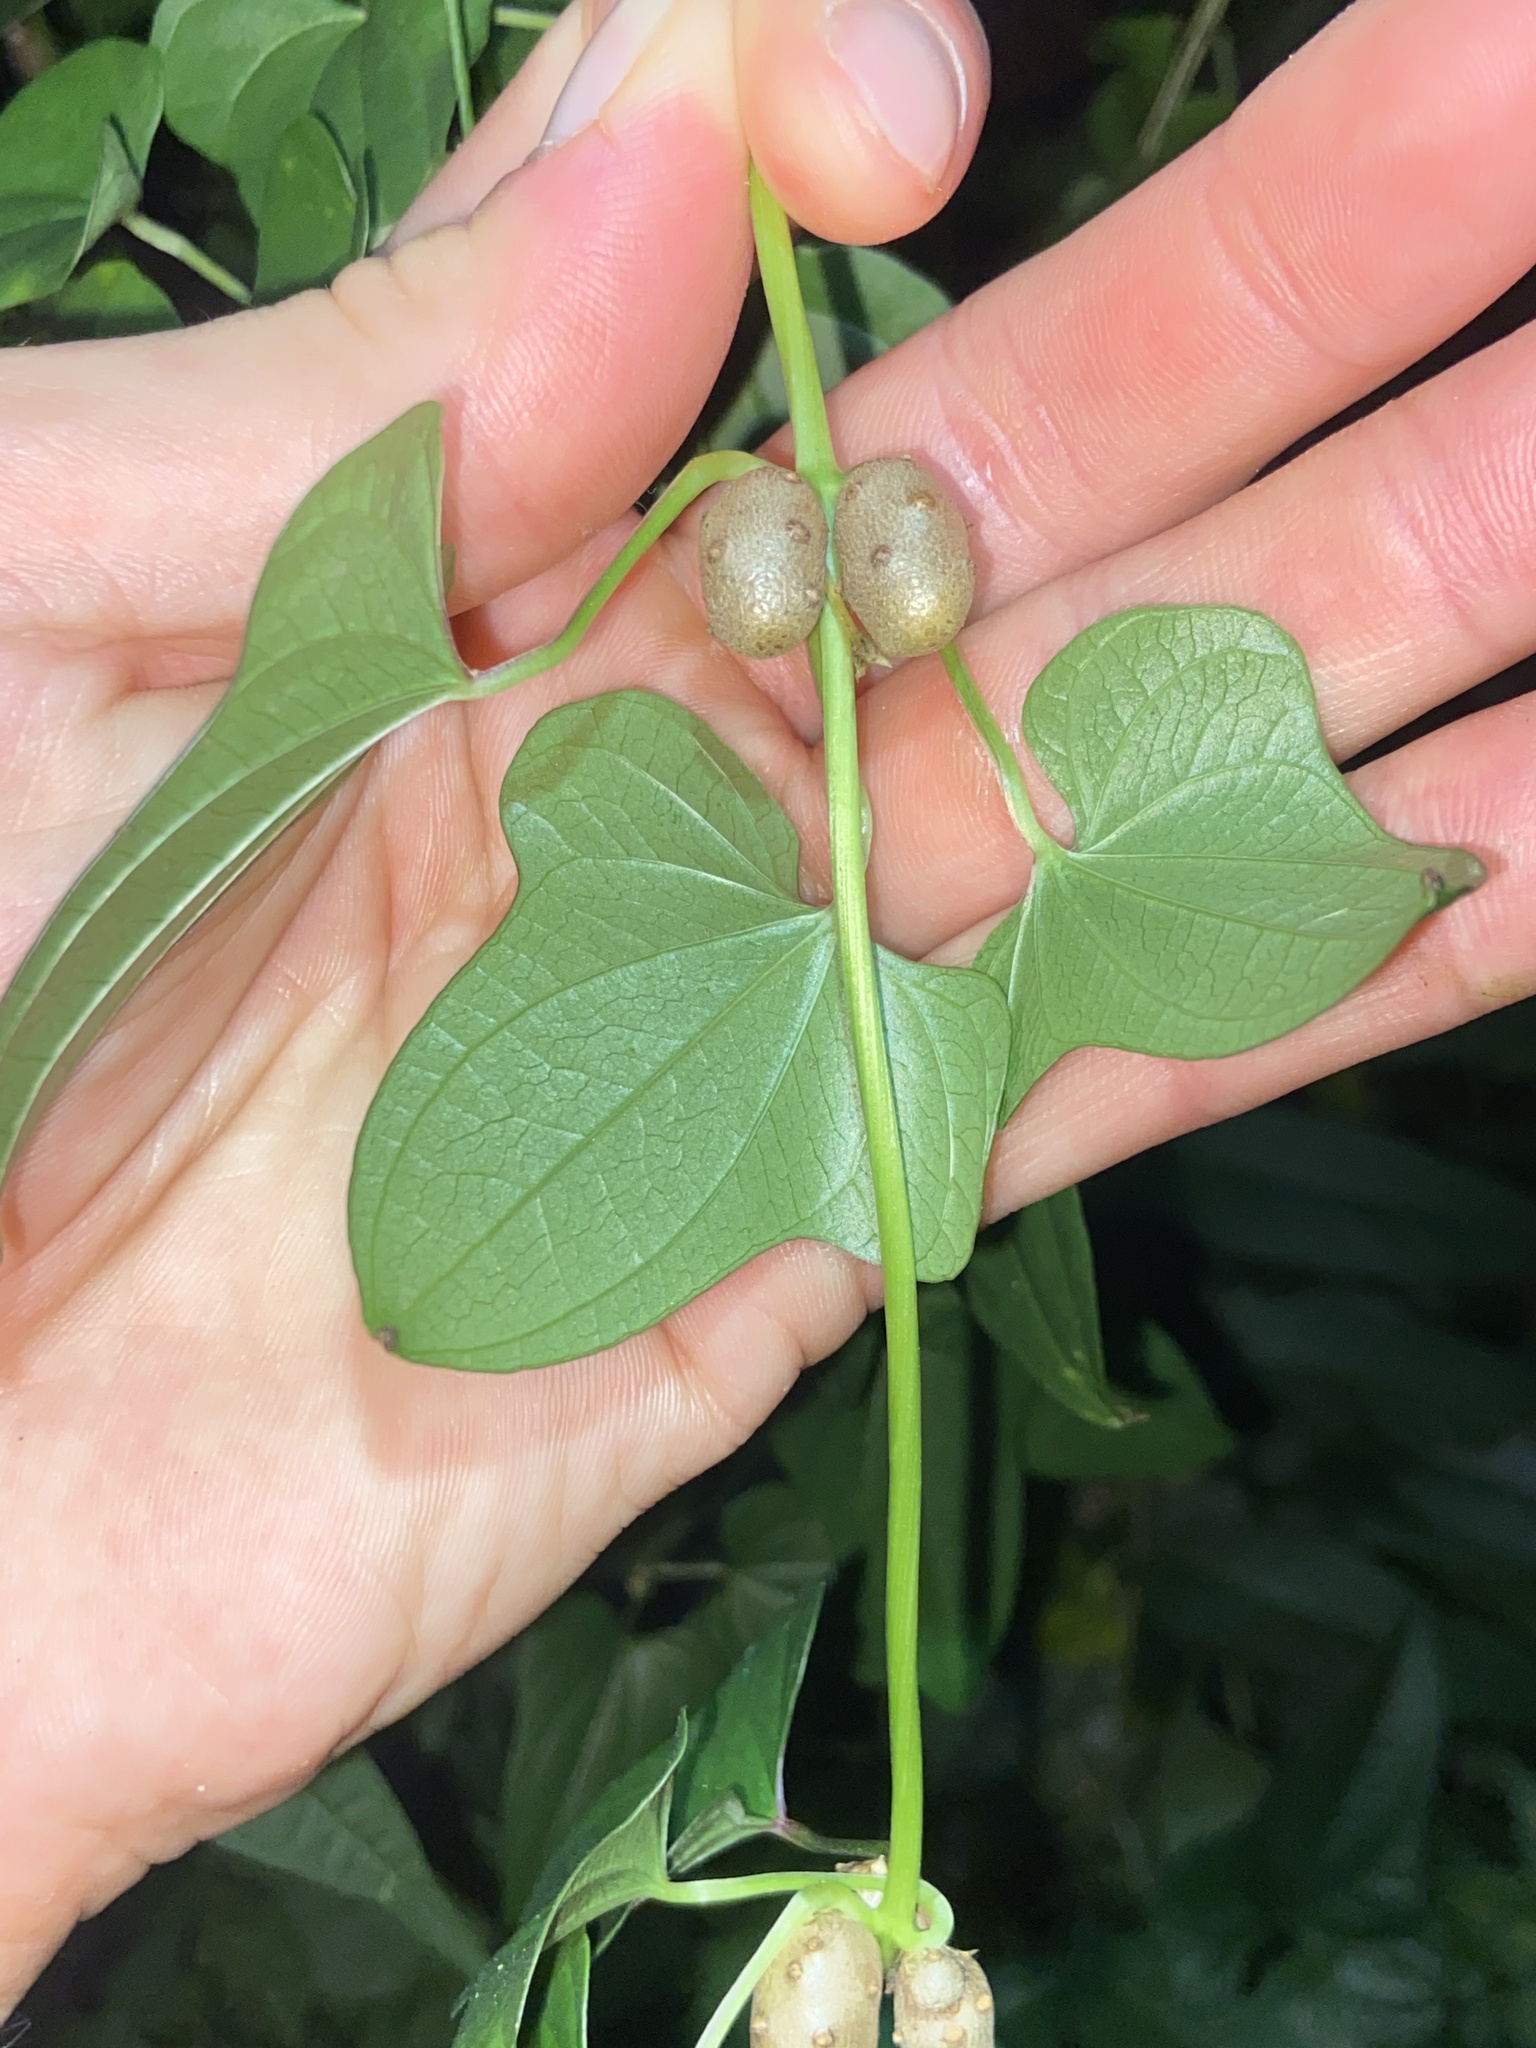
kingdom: Plantae
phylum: Tracheophyta
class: Liliopsida
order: Dioscoreales
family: Dioscoreaceae
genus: Dioscorea
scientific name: Dioscorea polystachya
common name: Chinese yam
